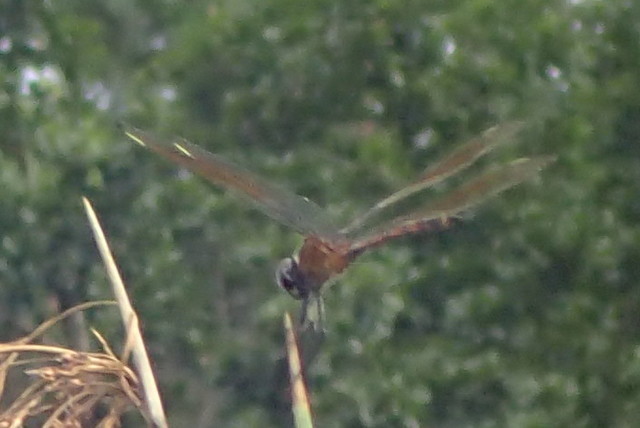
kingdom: Animalia
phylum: Arthropoda
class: Insecta
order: Odonata
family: Libellulidae
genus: Brachymesia
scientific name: Brachymesia gravida
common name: Four-spotted pennant
